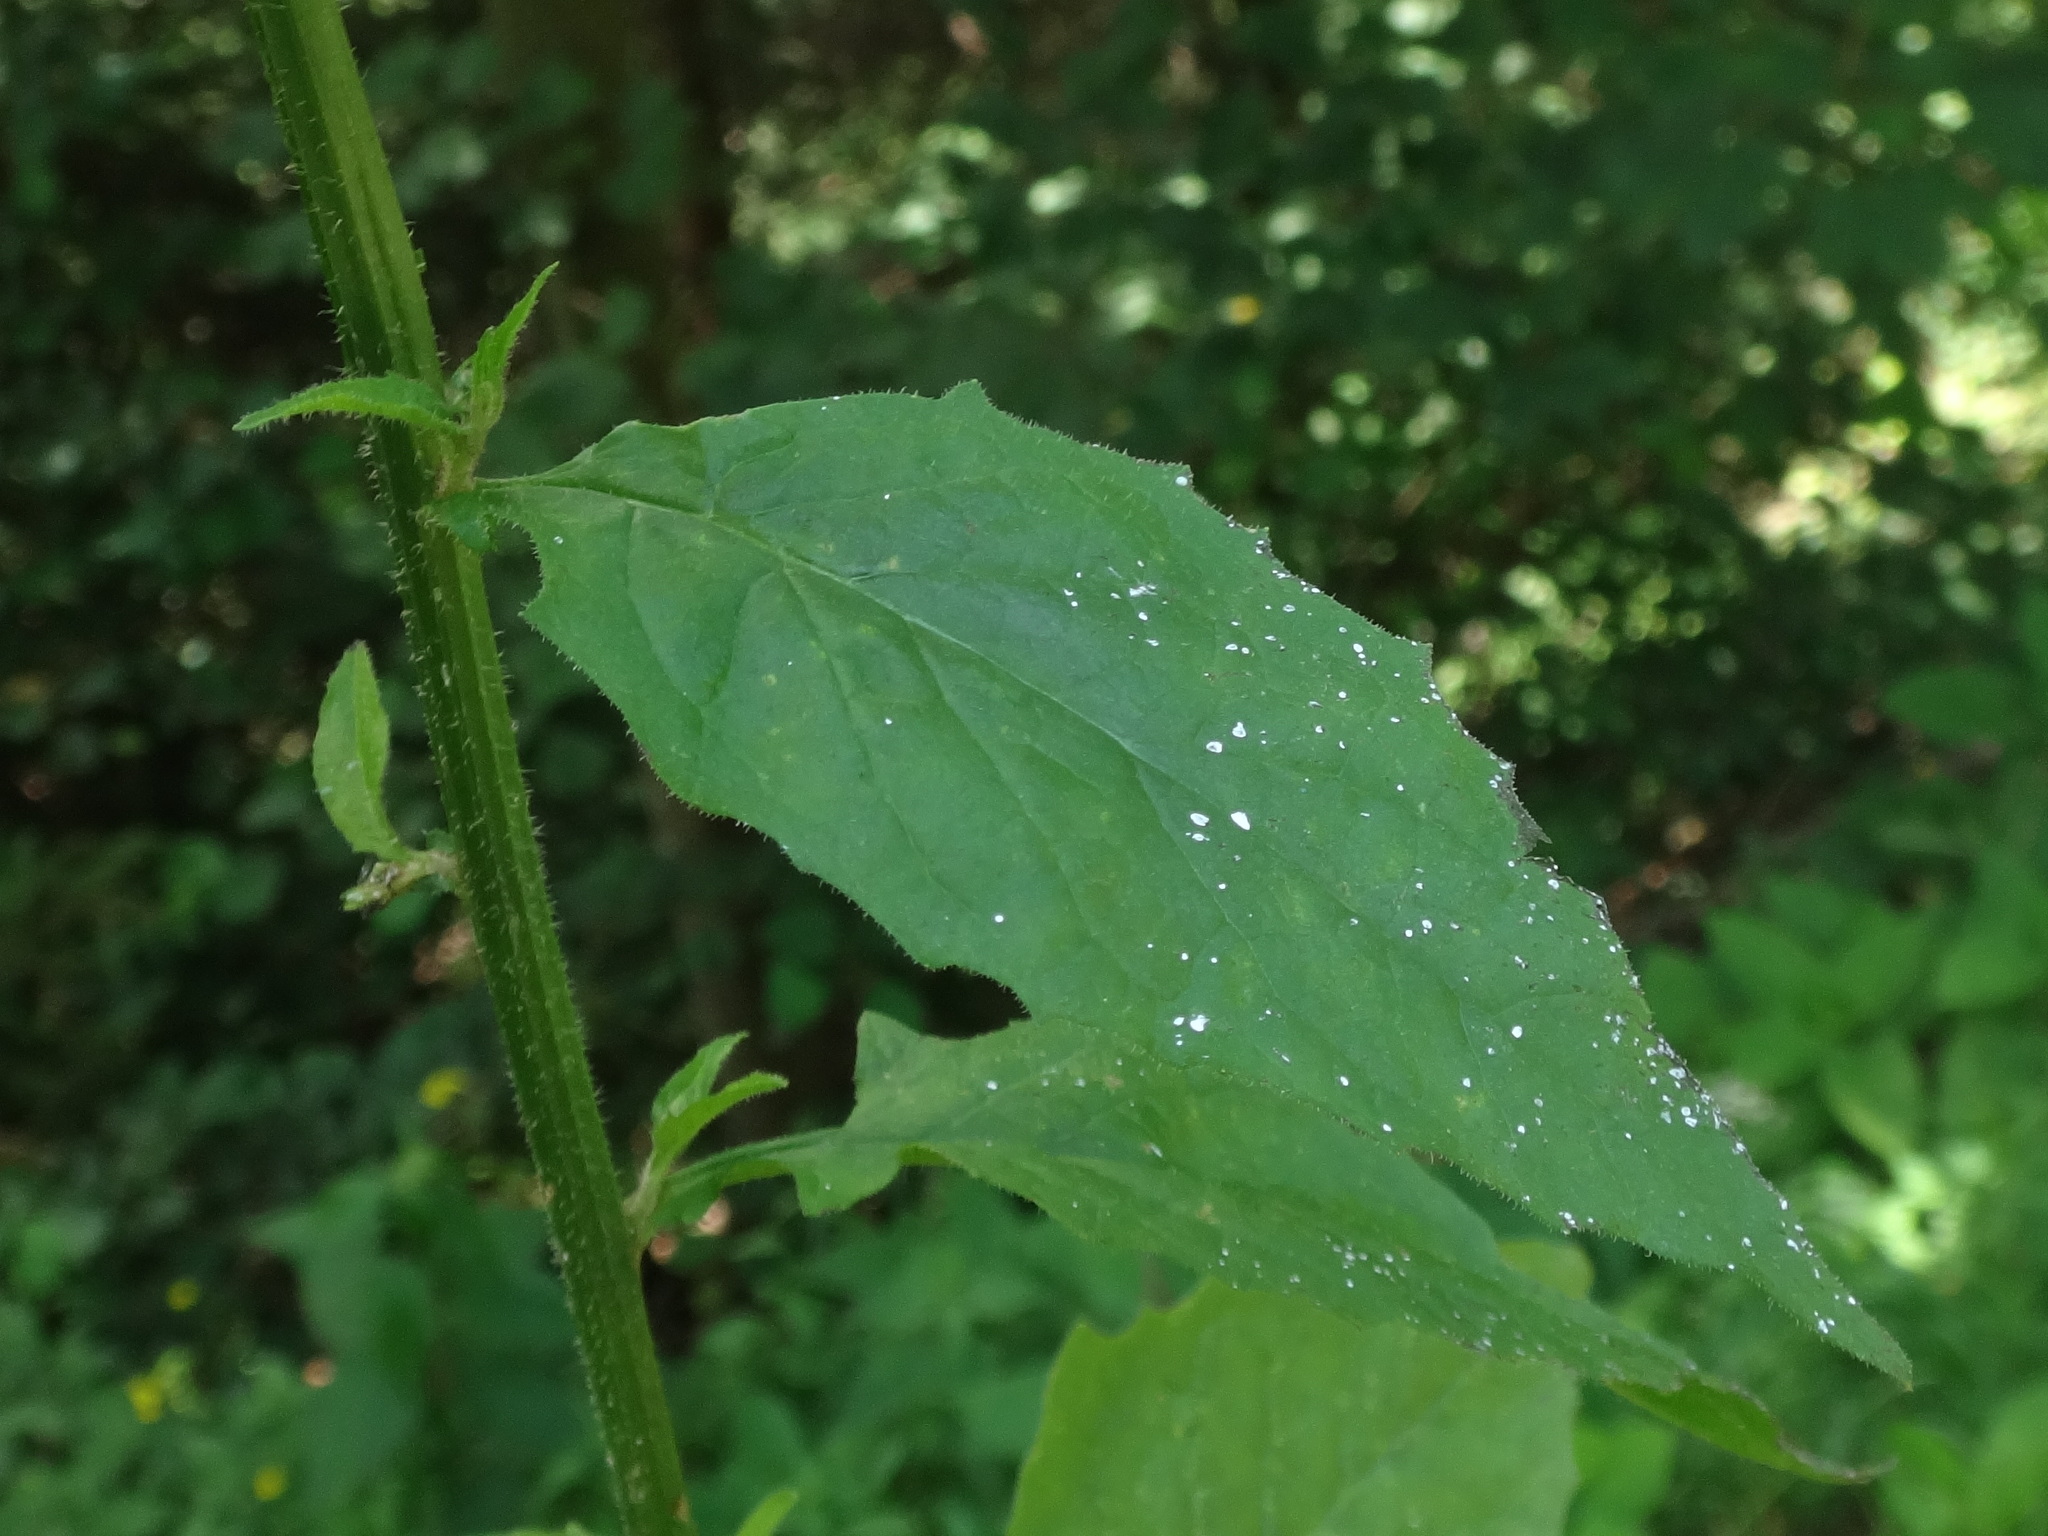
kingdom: Plantae
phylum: Tracheophyta
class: Magnoliopsida
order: Asterales
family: Asteraceae
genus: Lapsana
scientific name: Lapsana communis
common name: Nipplewort
